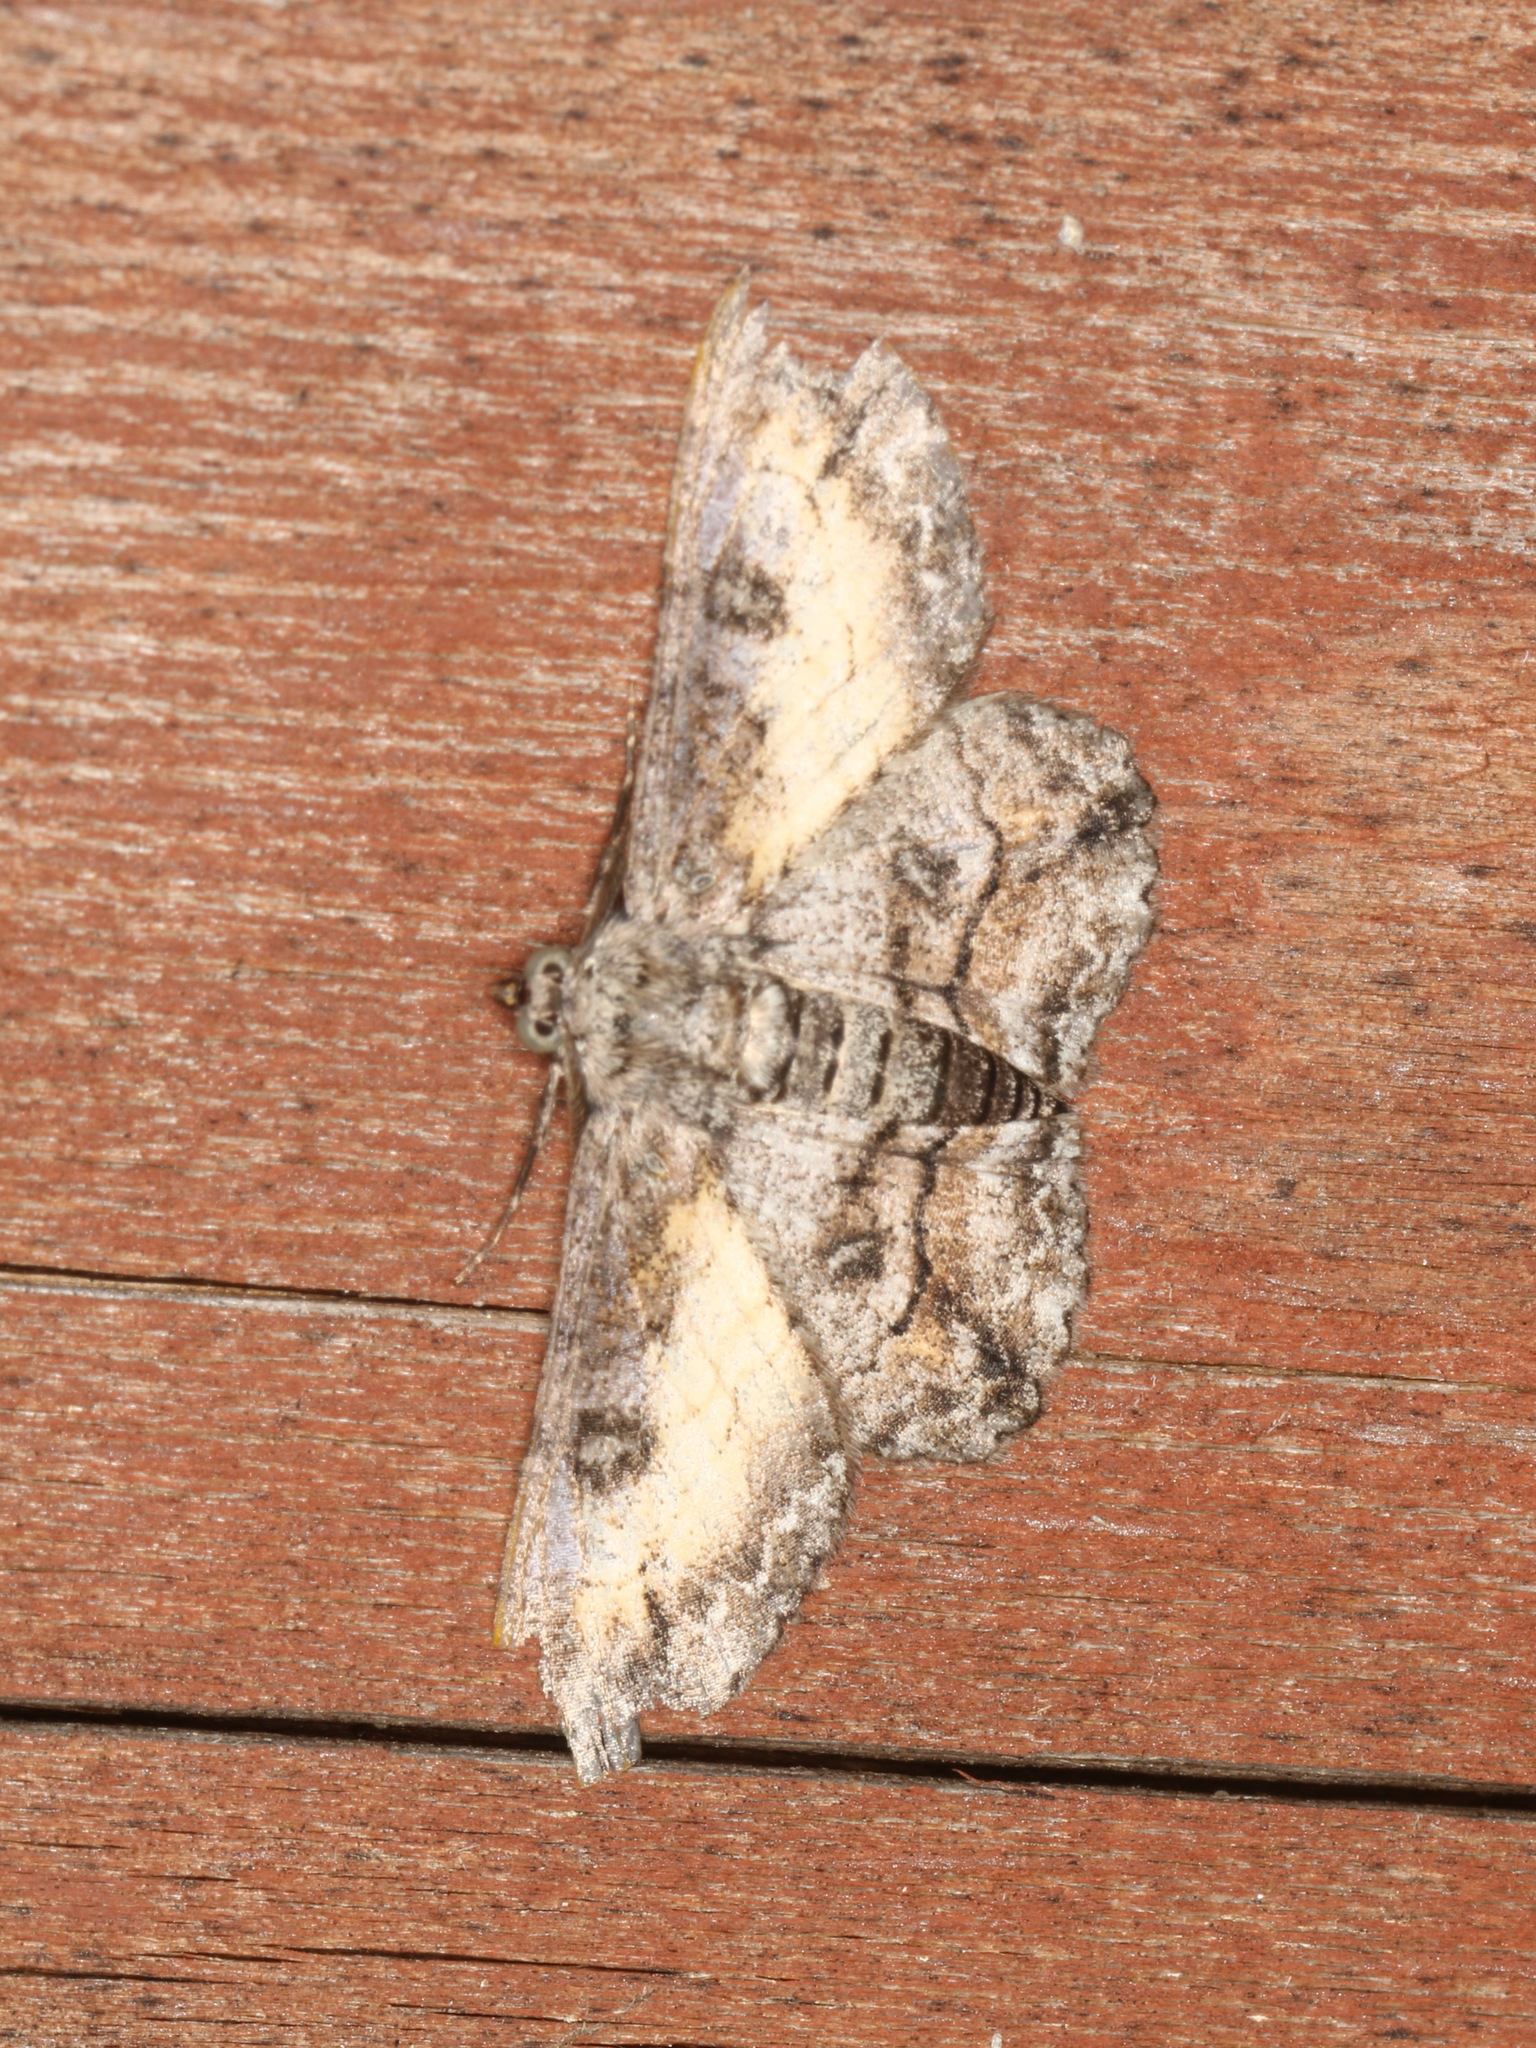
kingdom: Animalia
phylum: Arthropoda
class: Insecta
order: Lepidoptera
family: Geometridae
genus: Cleora
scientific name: Cleora injectaria
